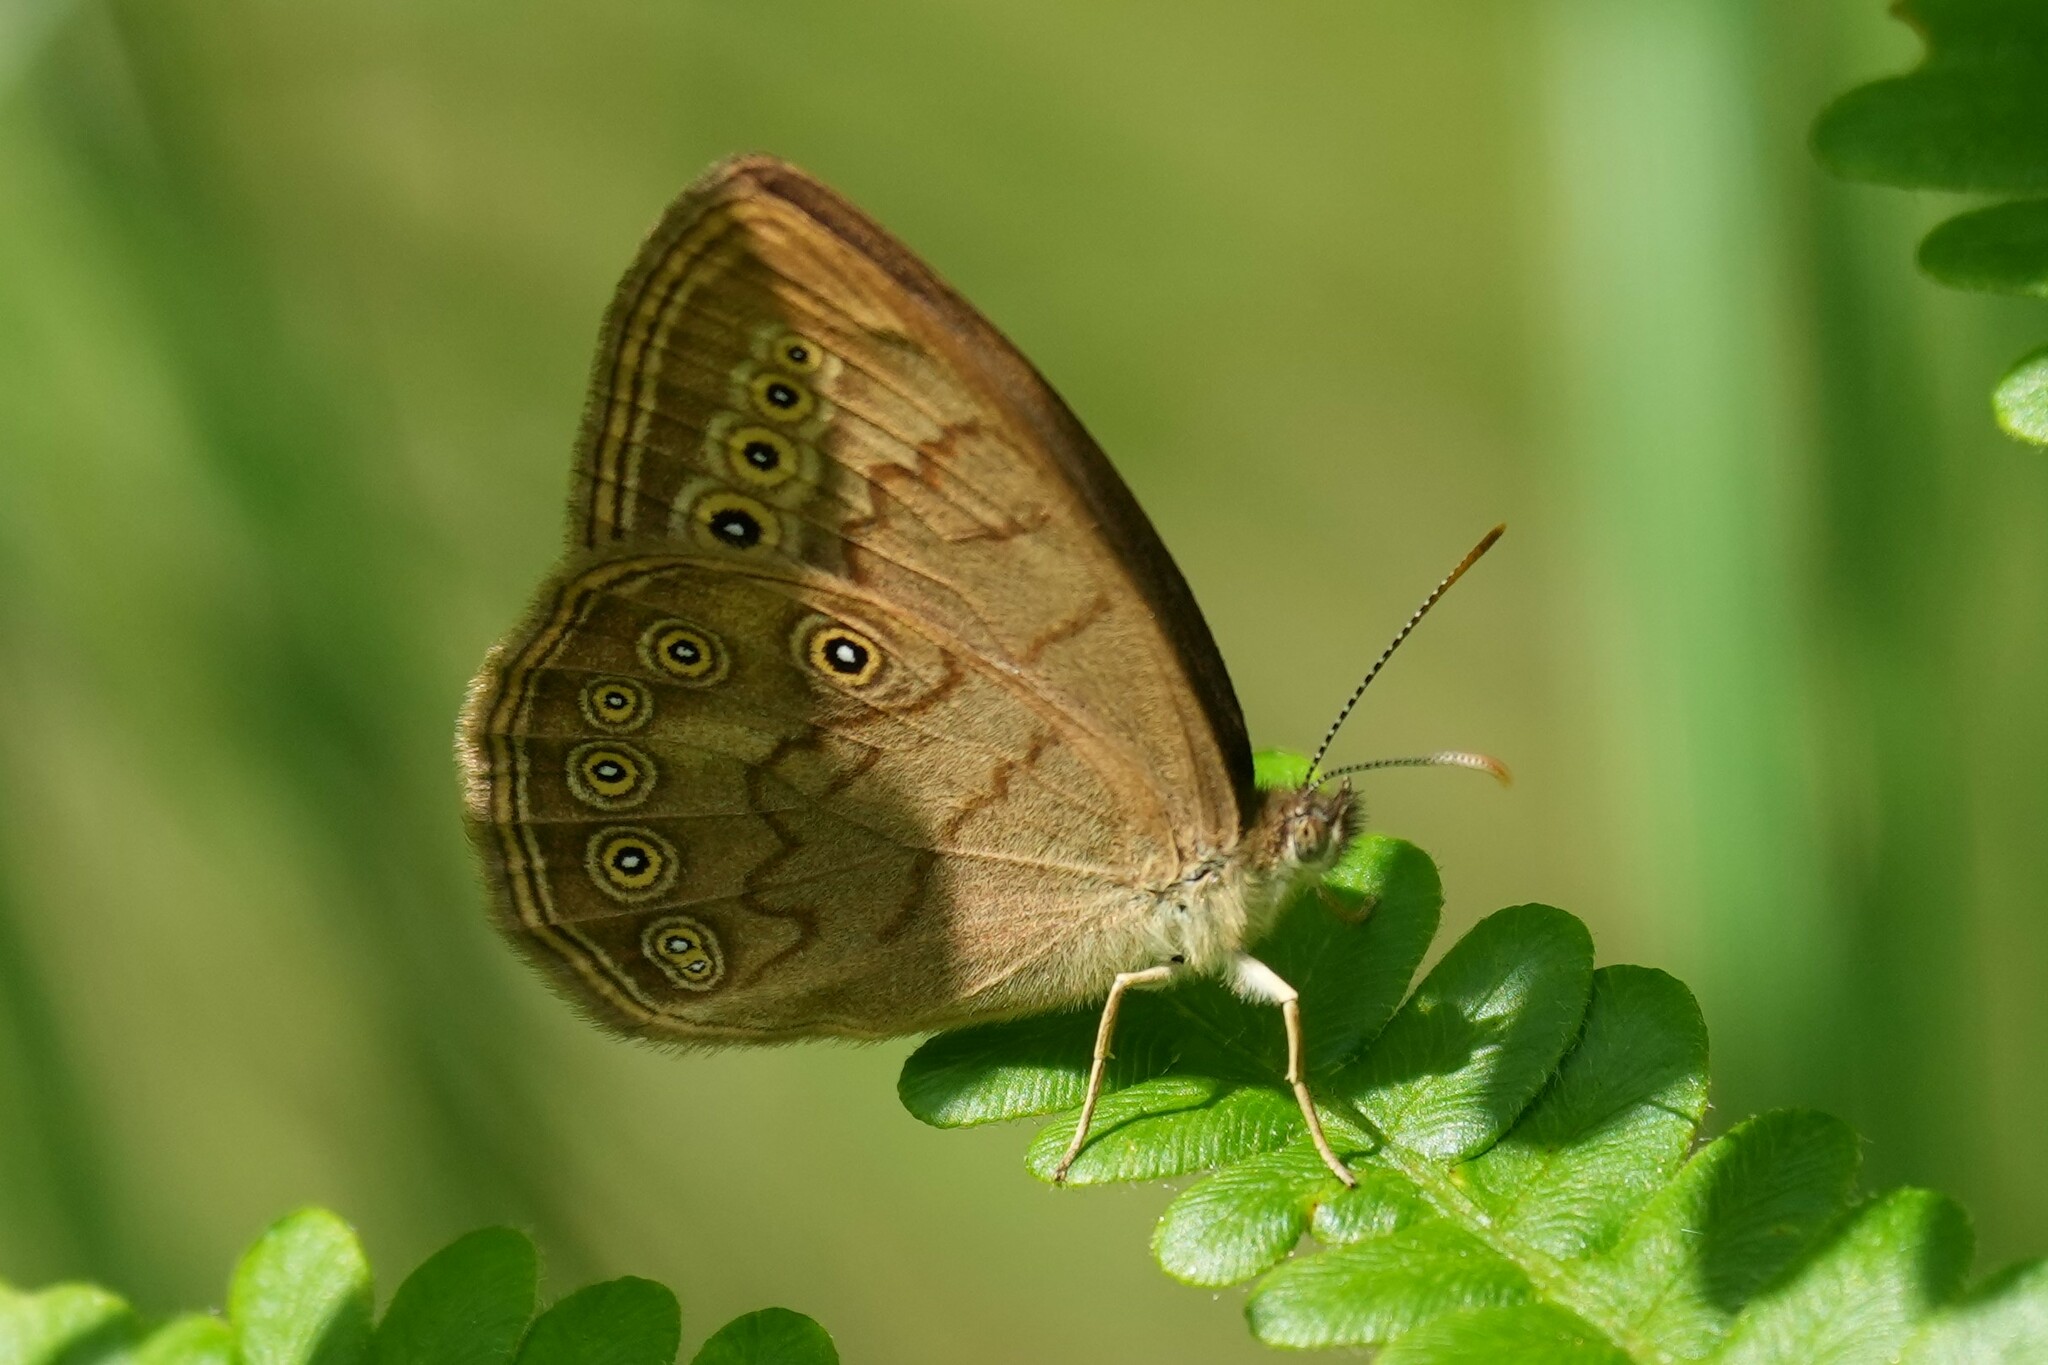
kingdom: Animalia
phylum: Arthropoda
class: Insecta
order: Lepidoptera
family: Nymphalidae
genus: Lethe
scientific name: Lethe eurydice
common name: Eyed brown
